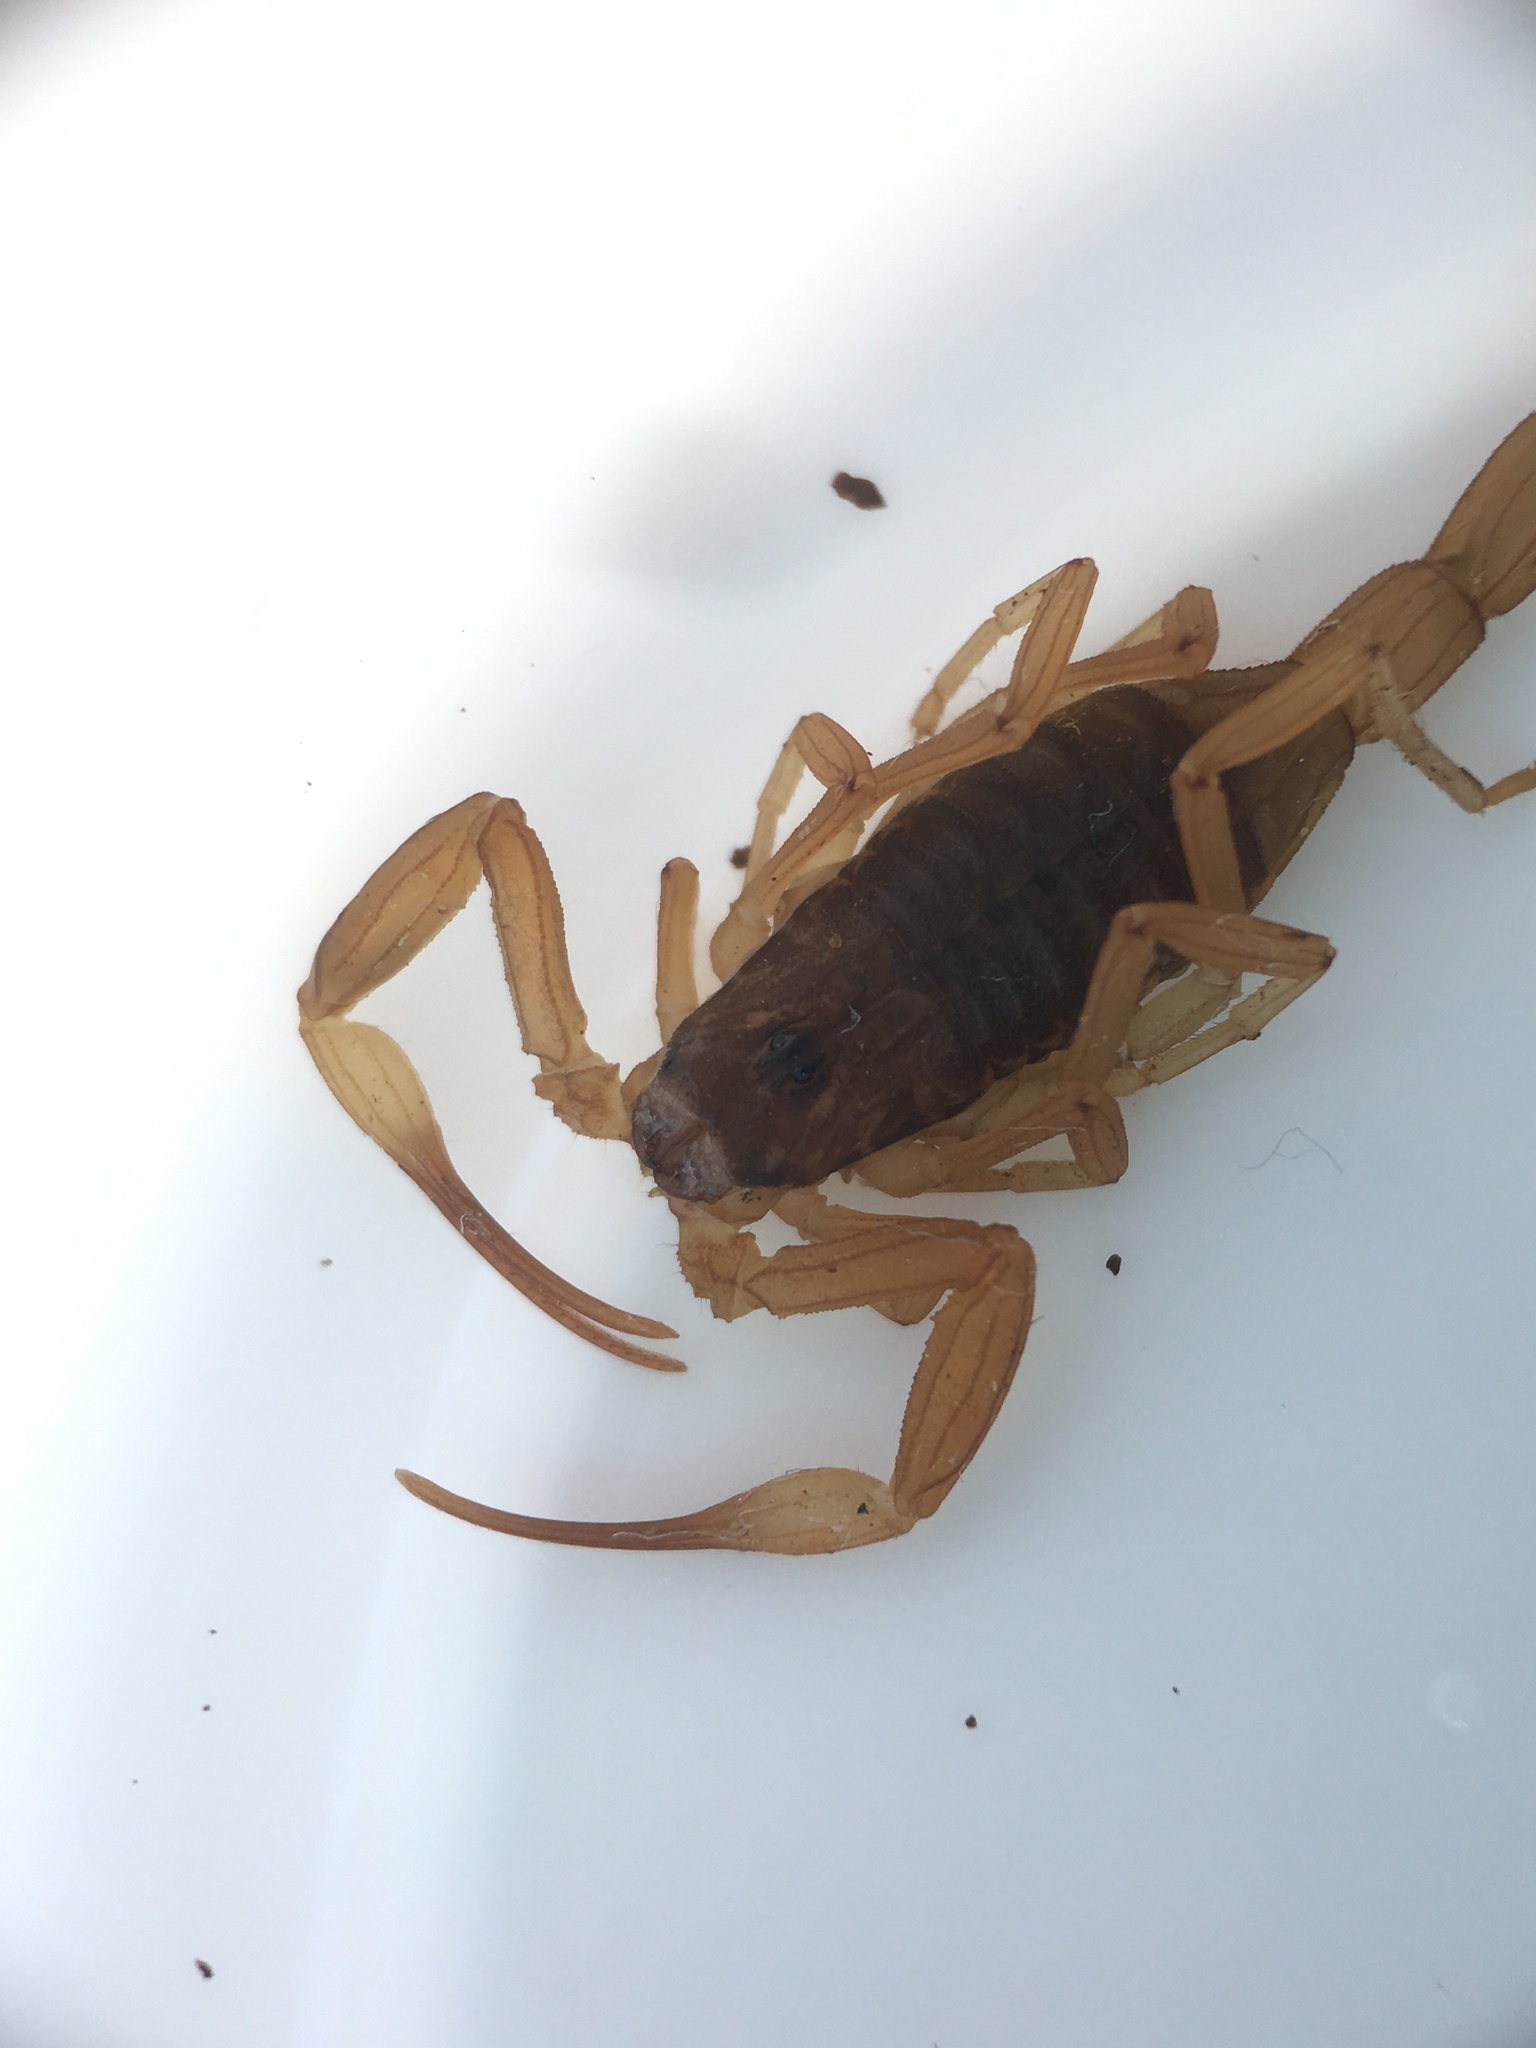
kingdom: Animalia
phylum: Arthropoda
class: Arachnida
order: Scorpiones
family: Buthidae
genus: Tityus
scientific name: Tityus confluens
